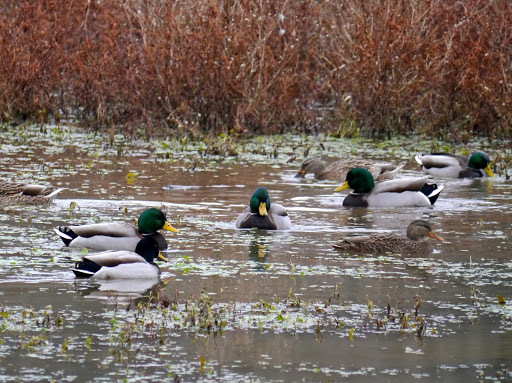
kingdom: Animalia
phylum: Chordata
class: Aves
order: Anseriformes
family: Anatidae
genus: Anas
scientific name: Anas platyrhynchos
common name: Mallard
